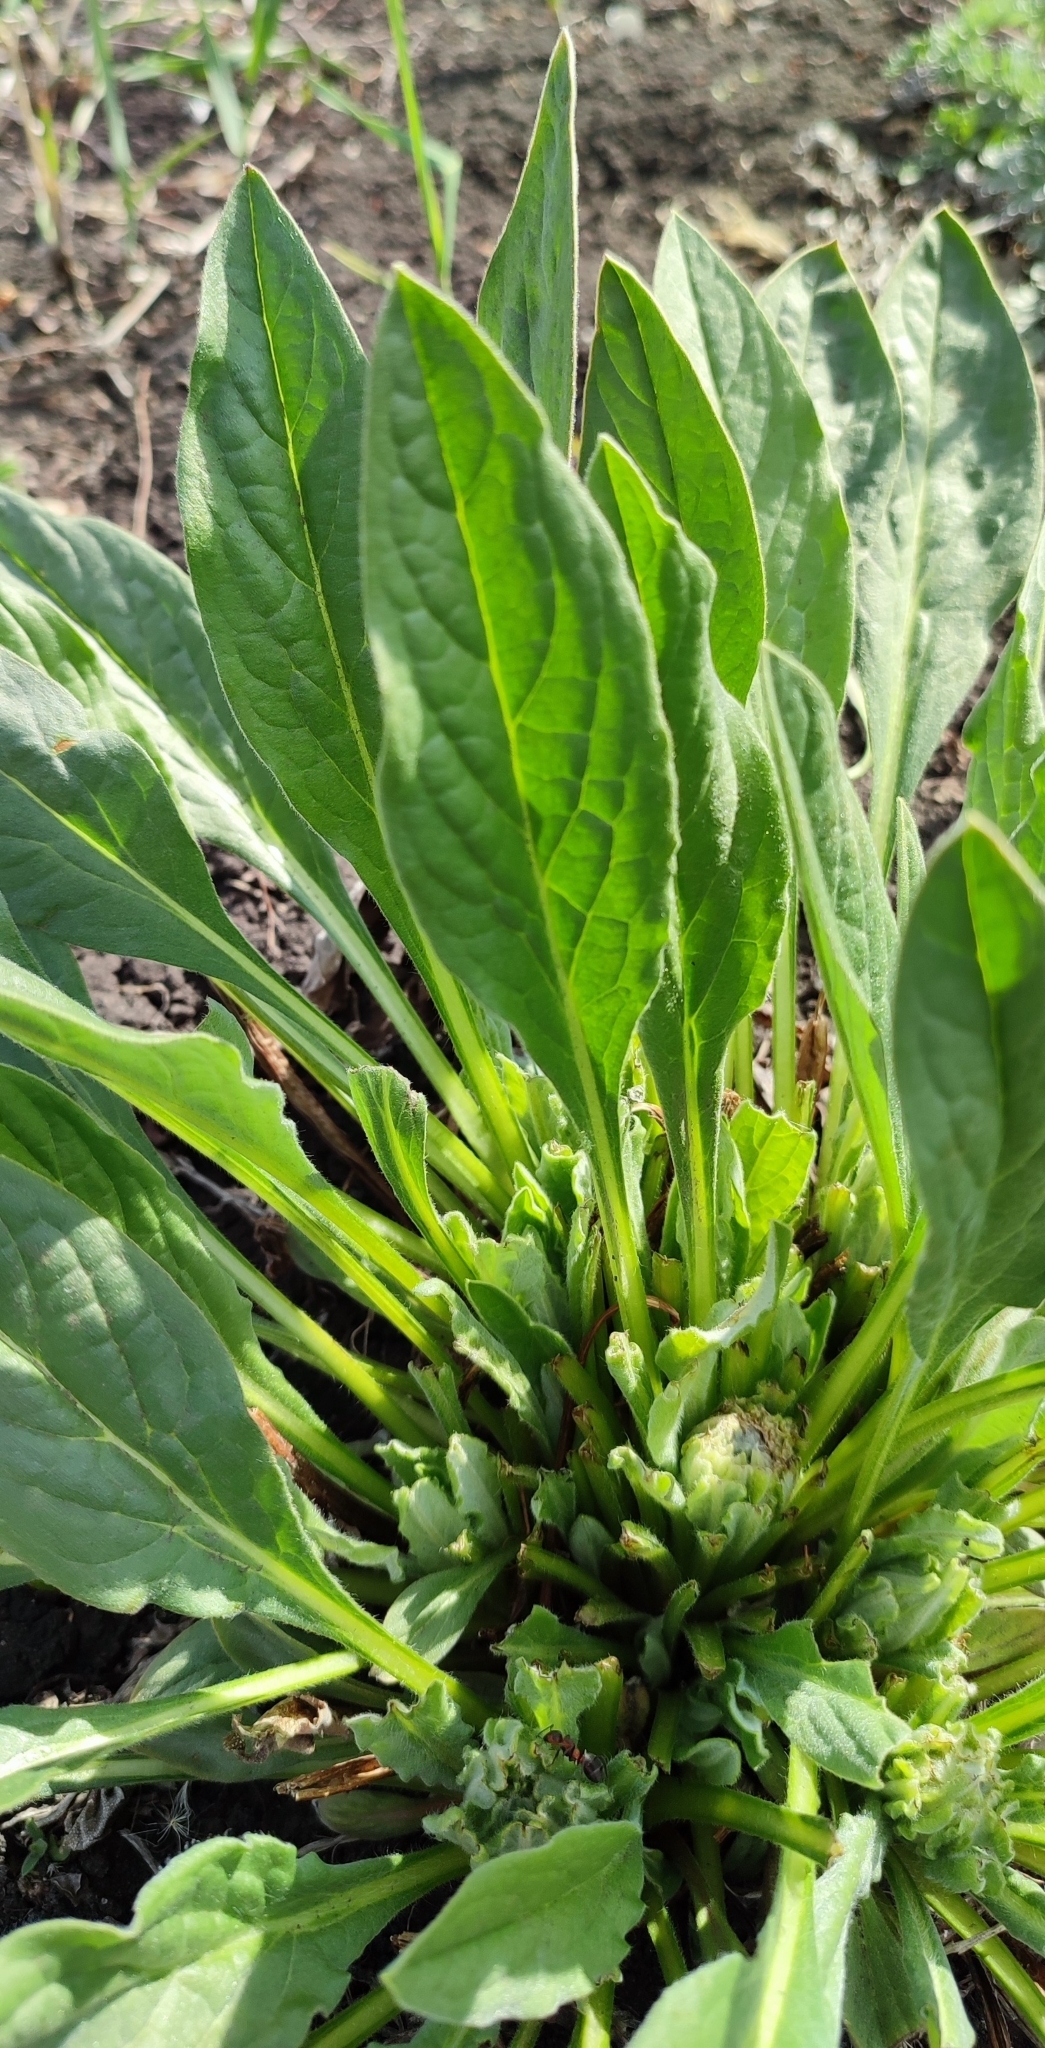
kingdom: Plantae
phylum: Tracheophyta
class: Magnoliopsida
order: Boraginales
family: Boraginaceae
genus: Cynoglossum
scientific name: Cynoglossum officinale
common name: Hound's-tongue
